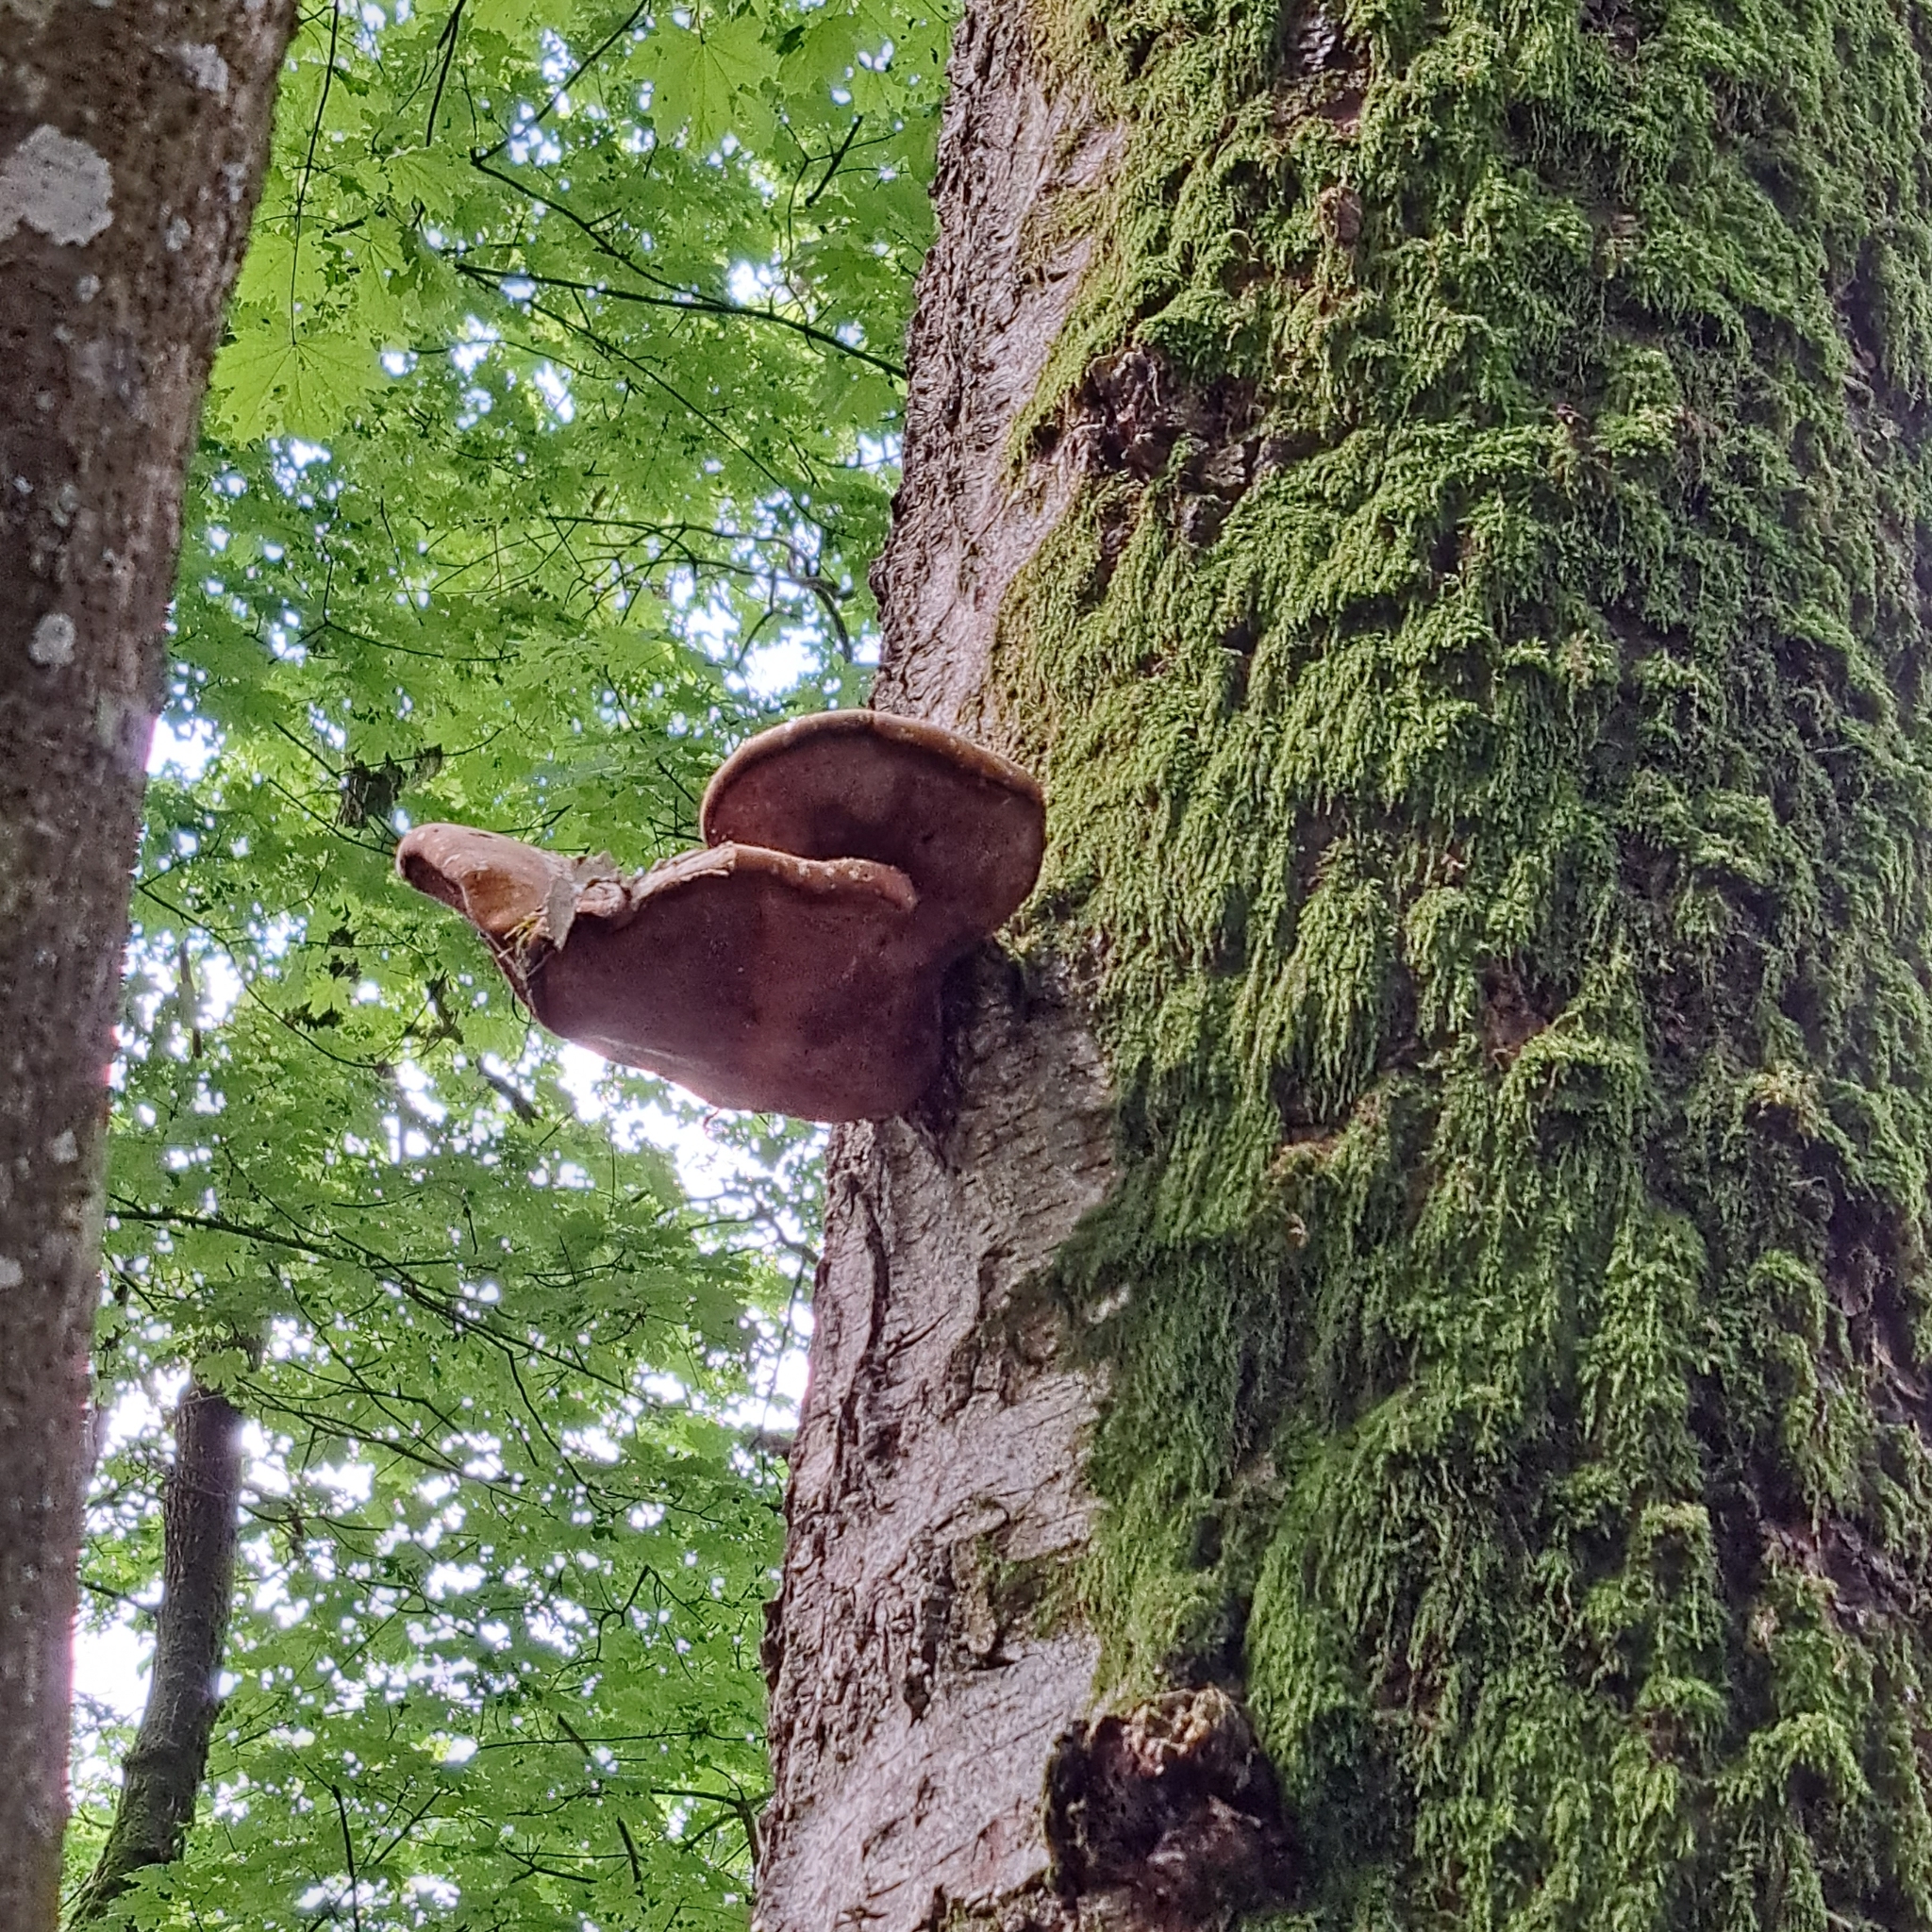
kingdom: Fungi
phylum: Basidiomycota
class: Agaricomycetes
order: Polyporales
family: Fomitopsidaceae
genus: Fomitopsis
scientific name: Fomitopsis betulina
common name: Birch polypore
